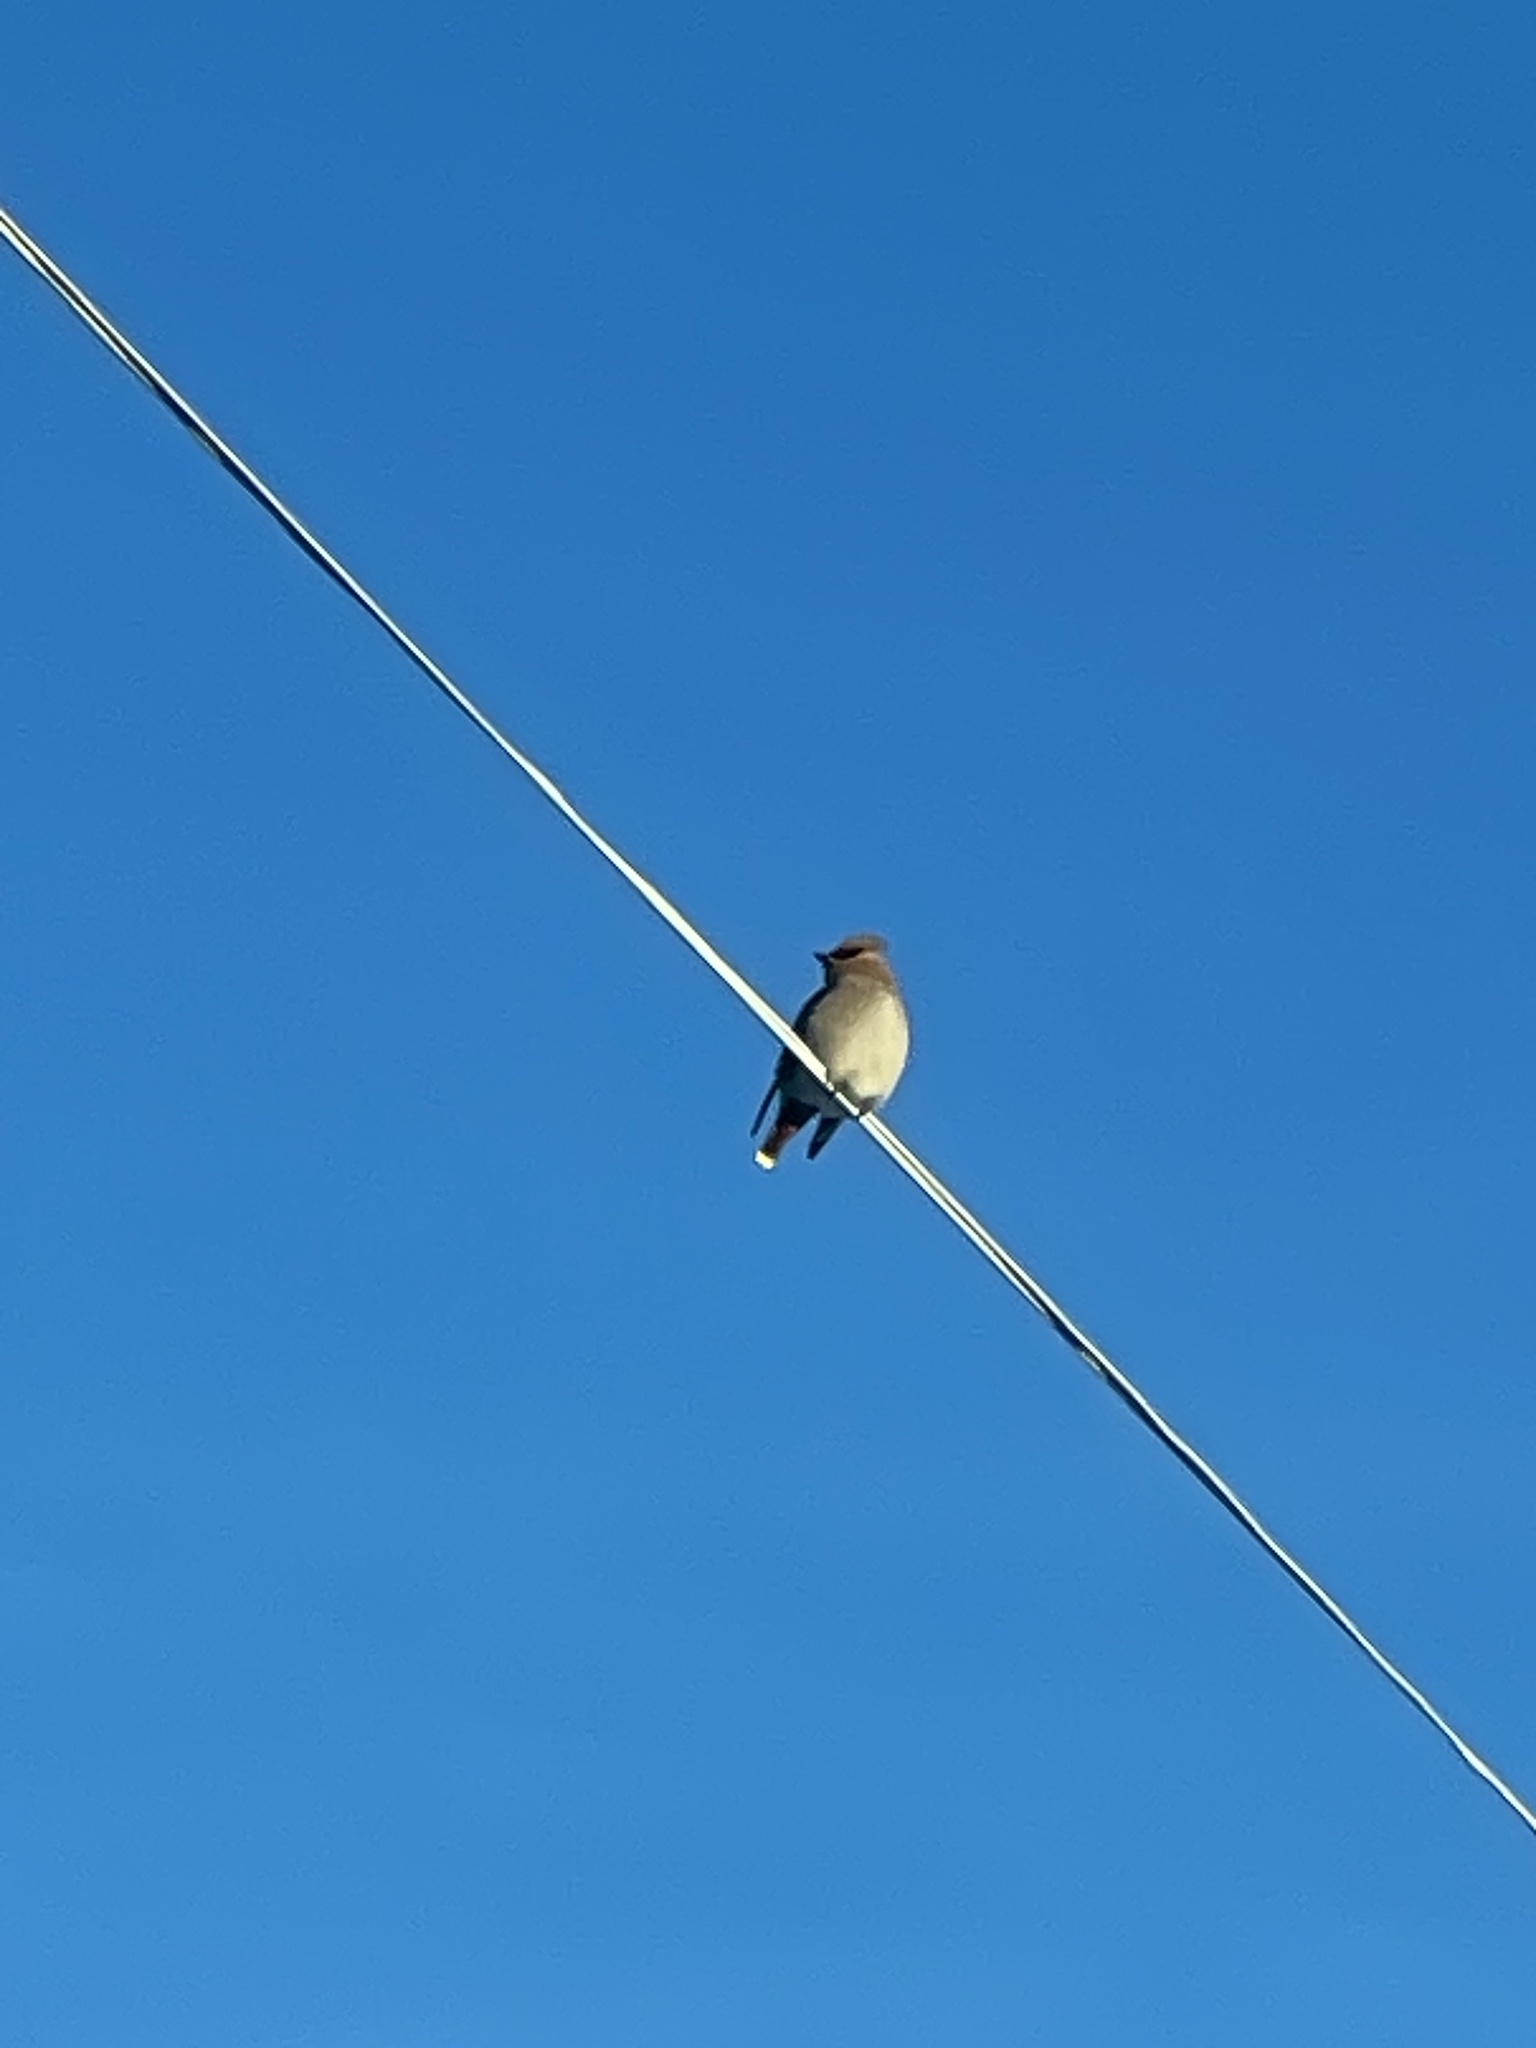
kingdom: Animalia
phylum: Chordata
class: Aves
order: Passeriformes
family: Bombycillidae
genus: Bombycilla
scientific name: Bombycilla garrulus
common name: Bohemian waxwing
